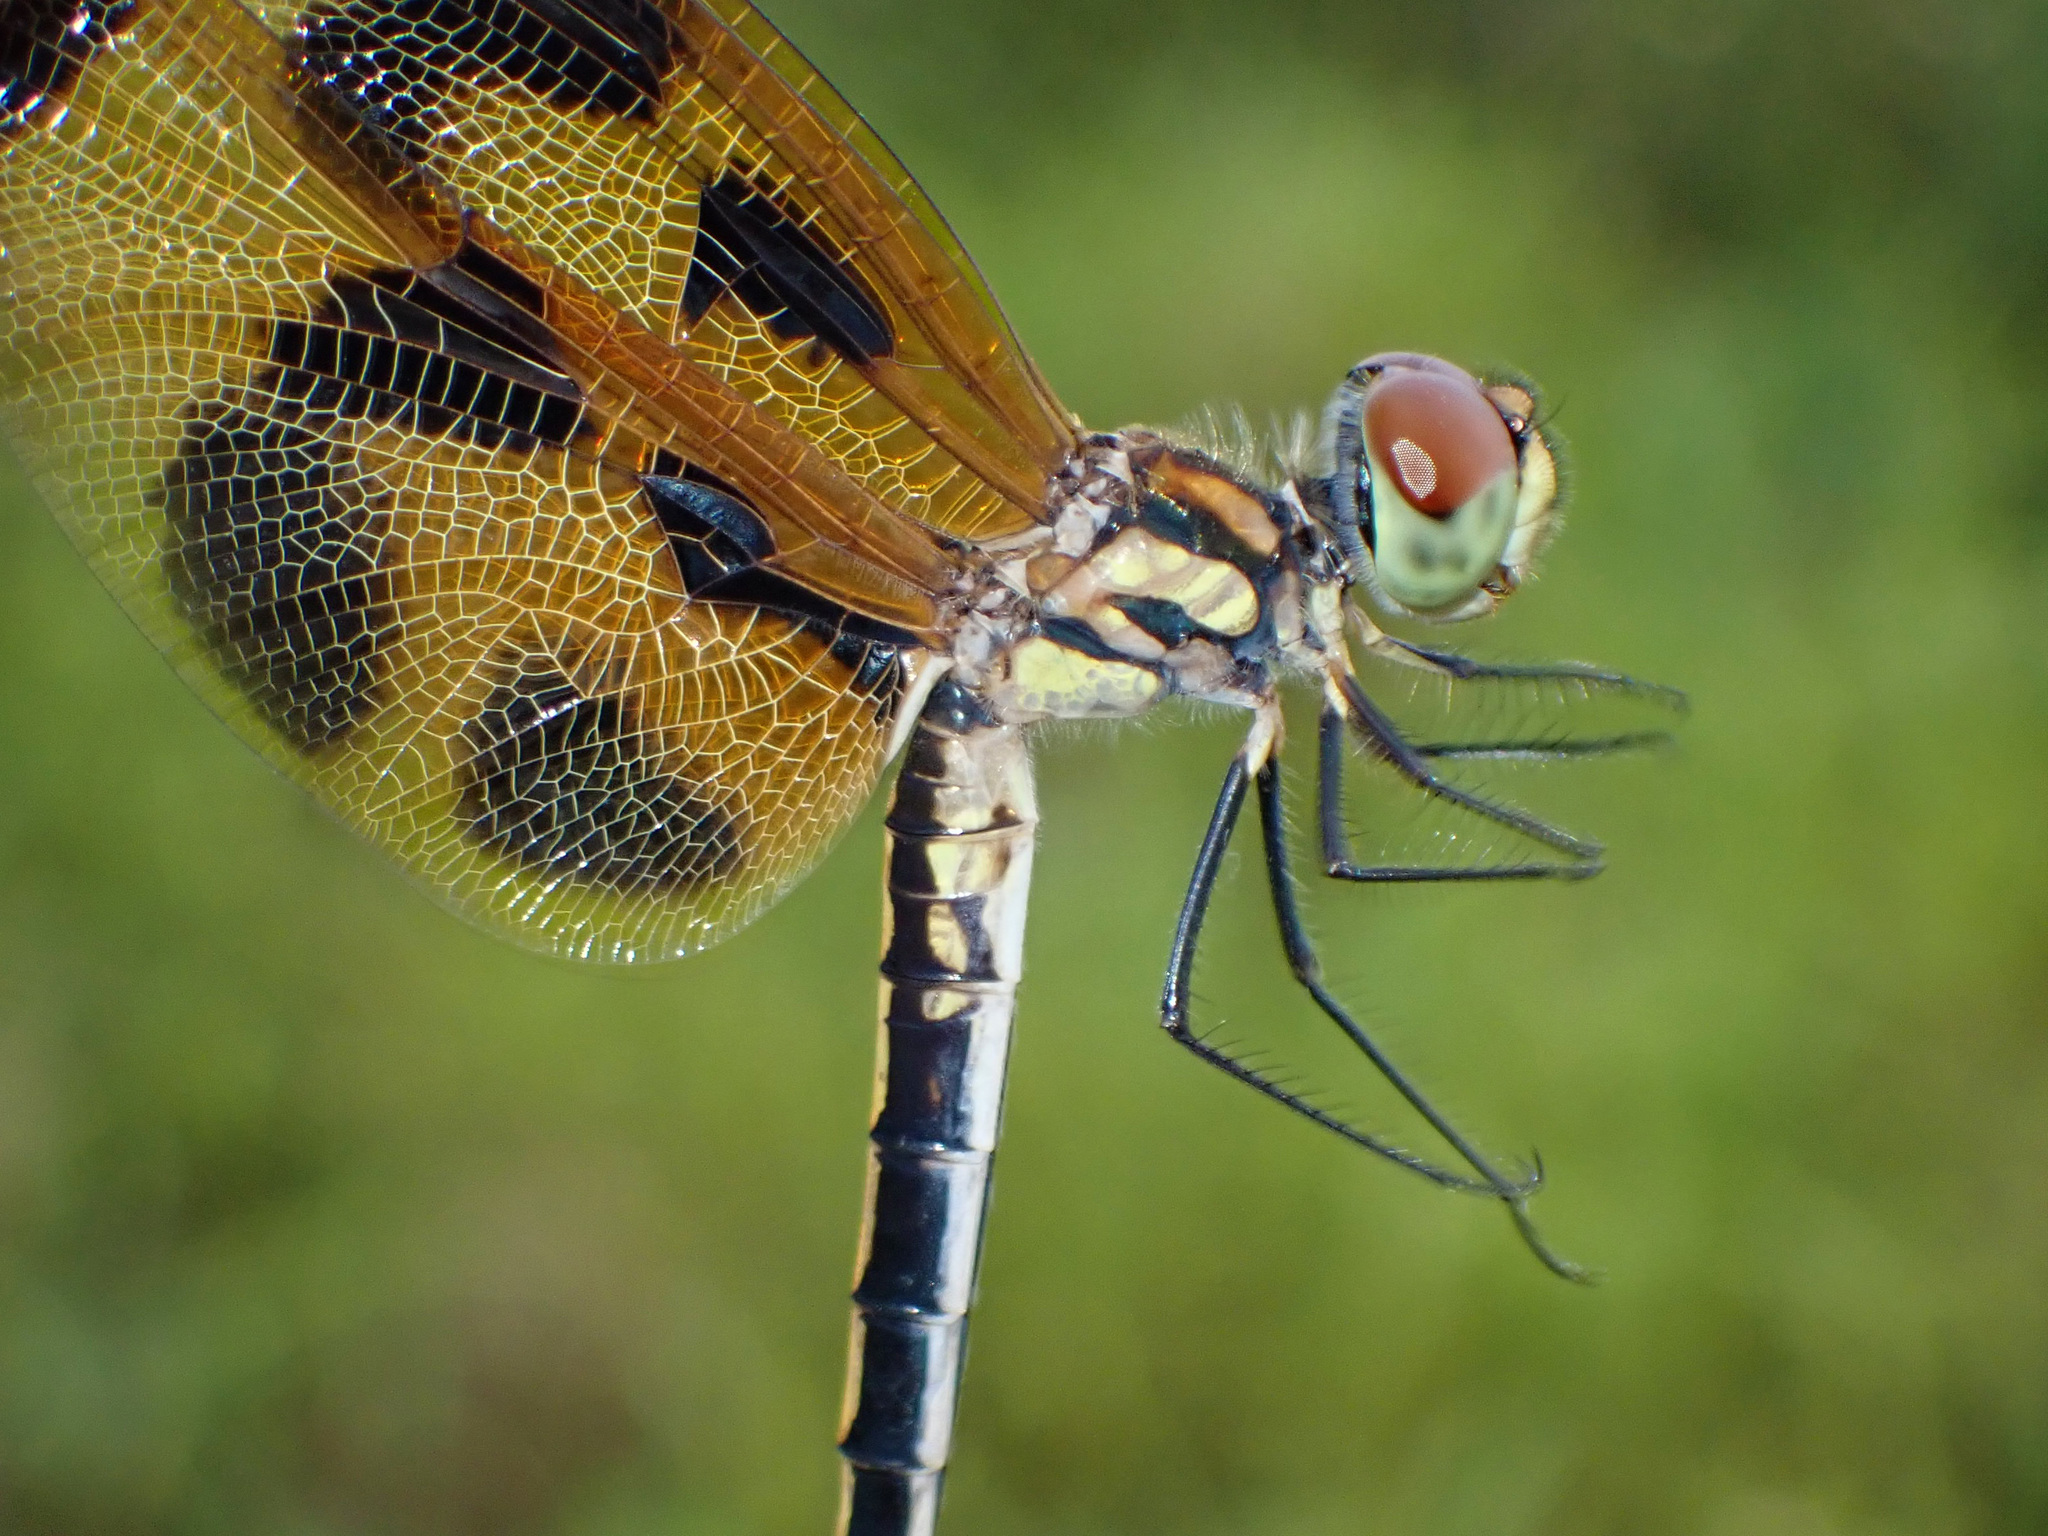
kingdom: Animalia
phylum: Arthropoda
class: Insecta
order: Odonata
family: Libellulidae
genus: Celithemis
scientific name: Celithemis eponina
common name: Halloween pennant
